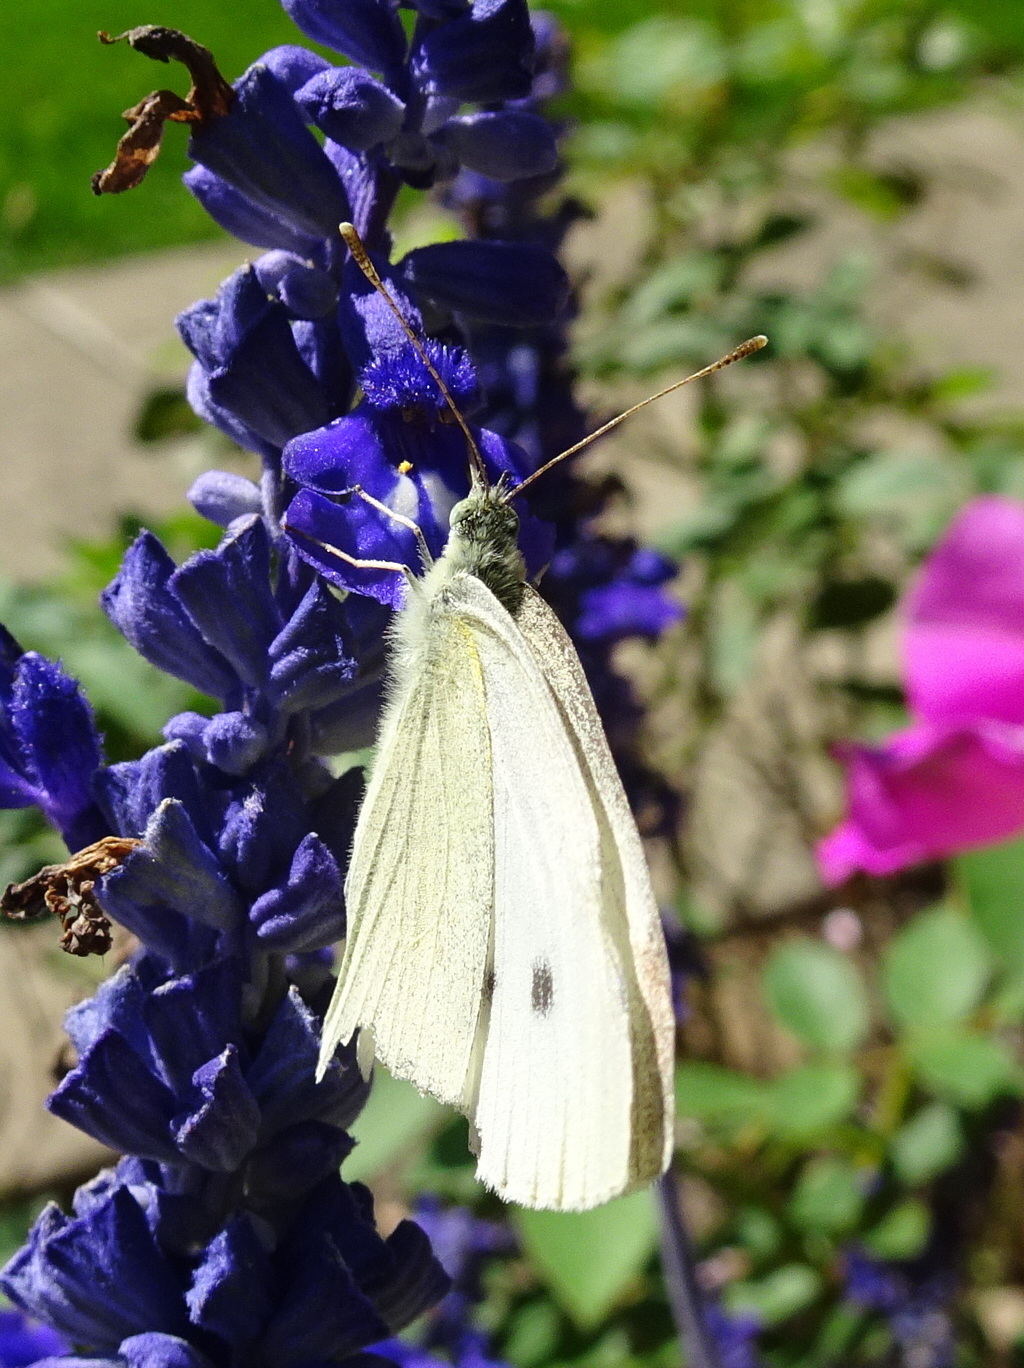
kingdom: Animalia
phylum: Arthropoda
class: Insecta
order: Lepidoptera
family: Pieridae
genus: Pieris
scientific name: Pieris rapae
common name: Small white
